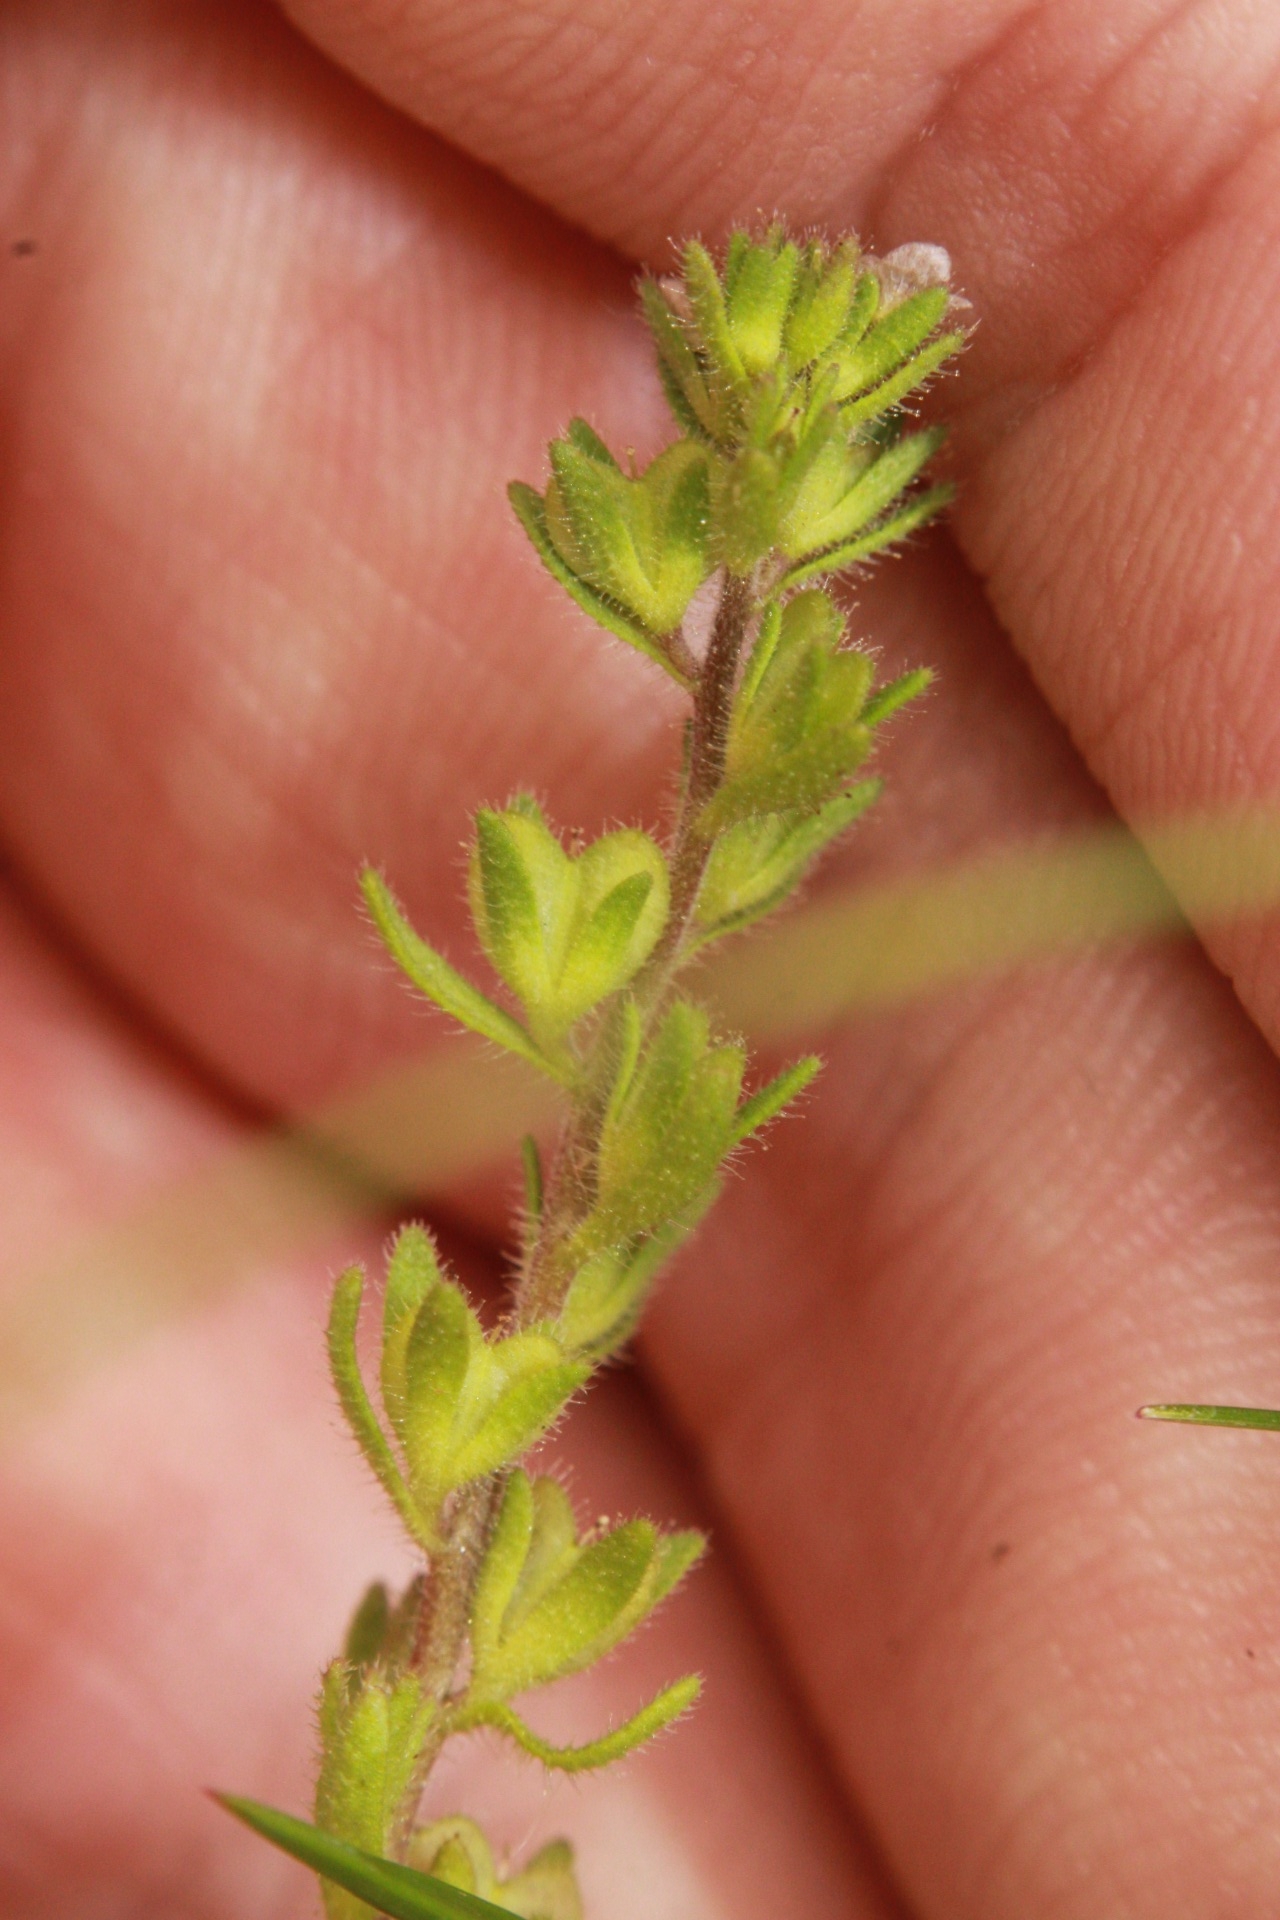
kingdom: Plantae
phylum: Tracheophyta
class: Magnoliopsida
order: Lamiales
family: Plantaginaceae
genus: Veronica
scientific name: Veronica arvensis
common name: Corn speedwell
